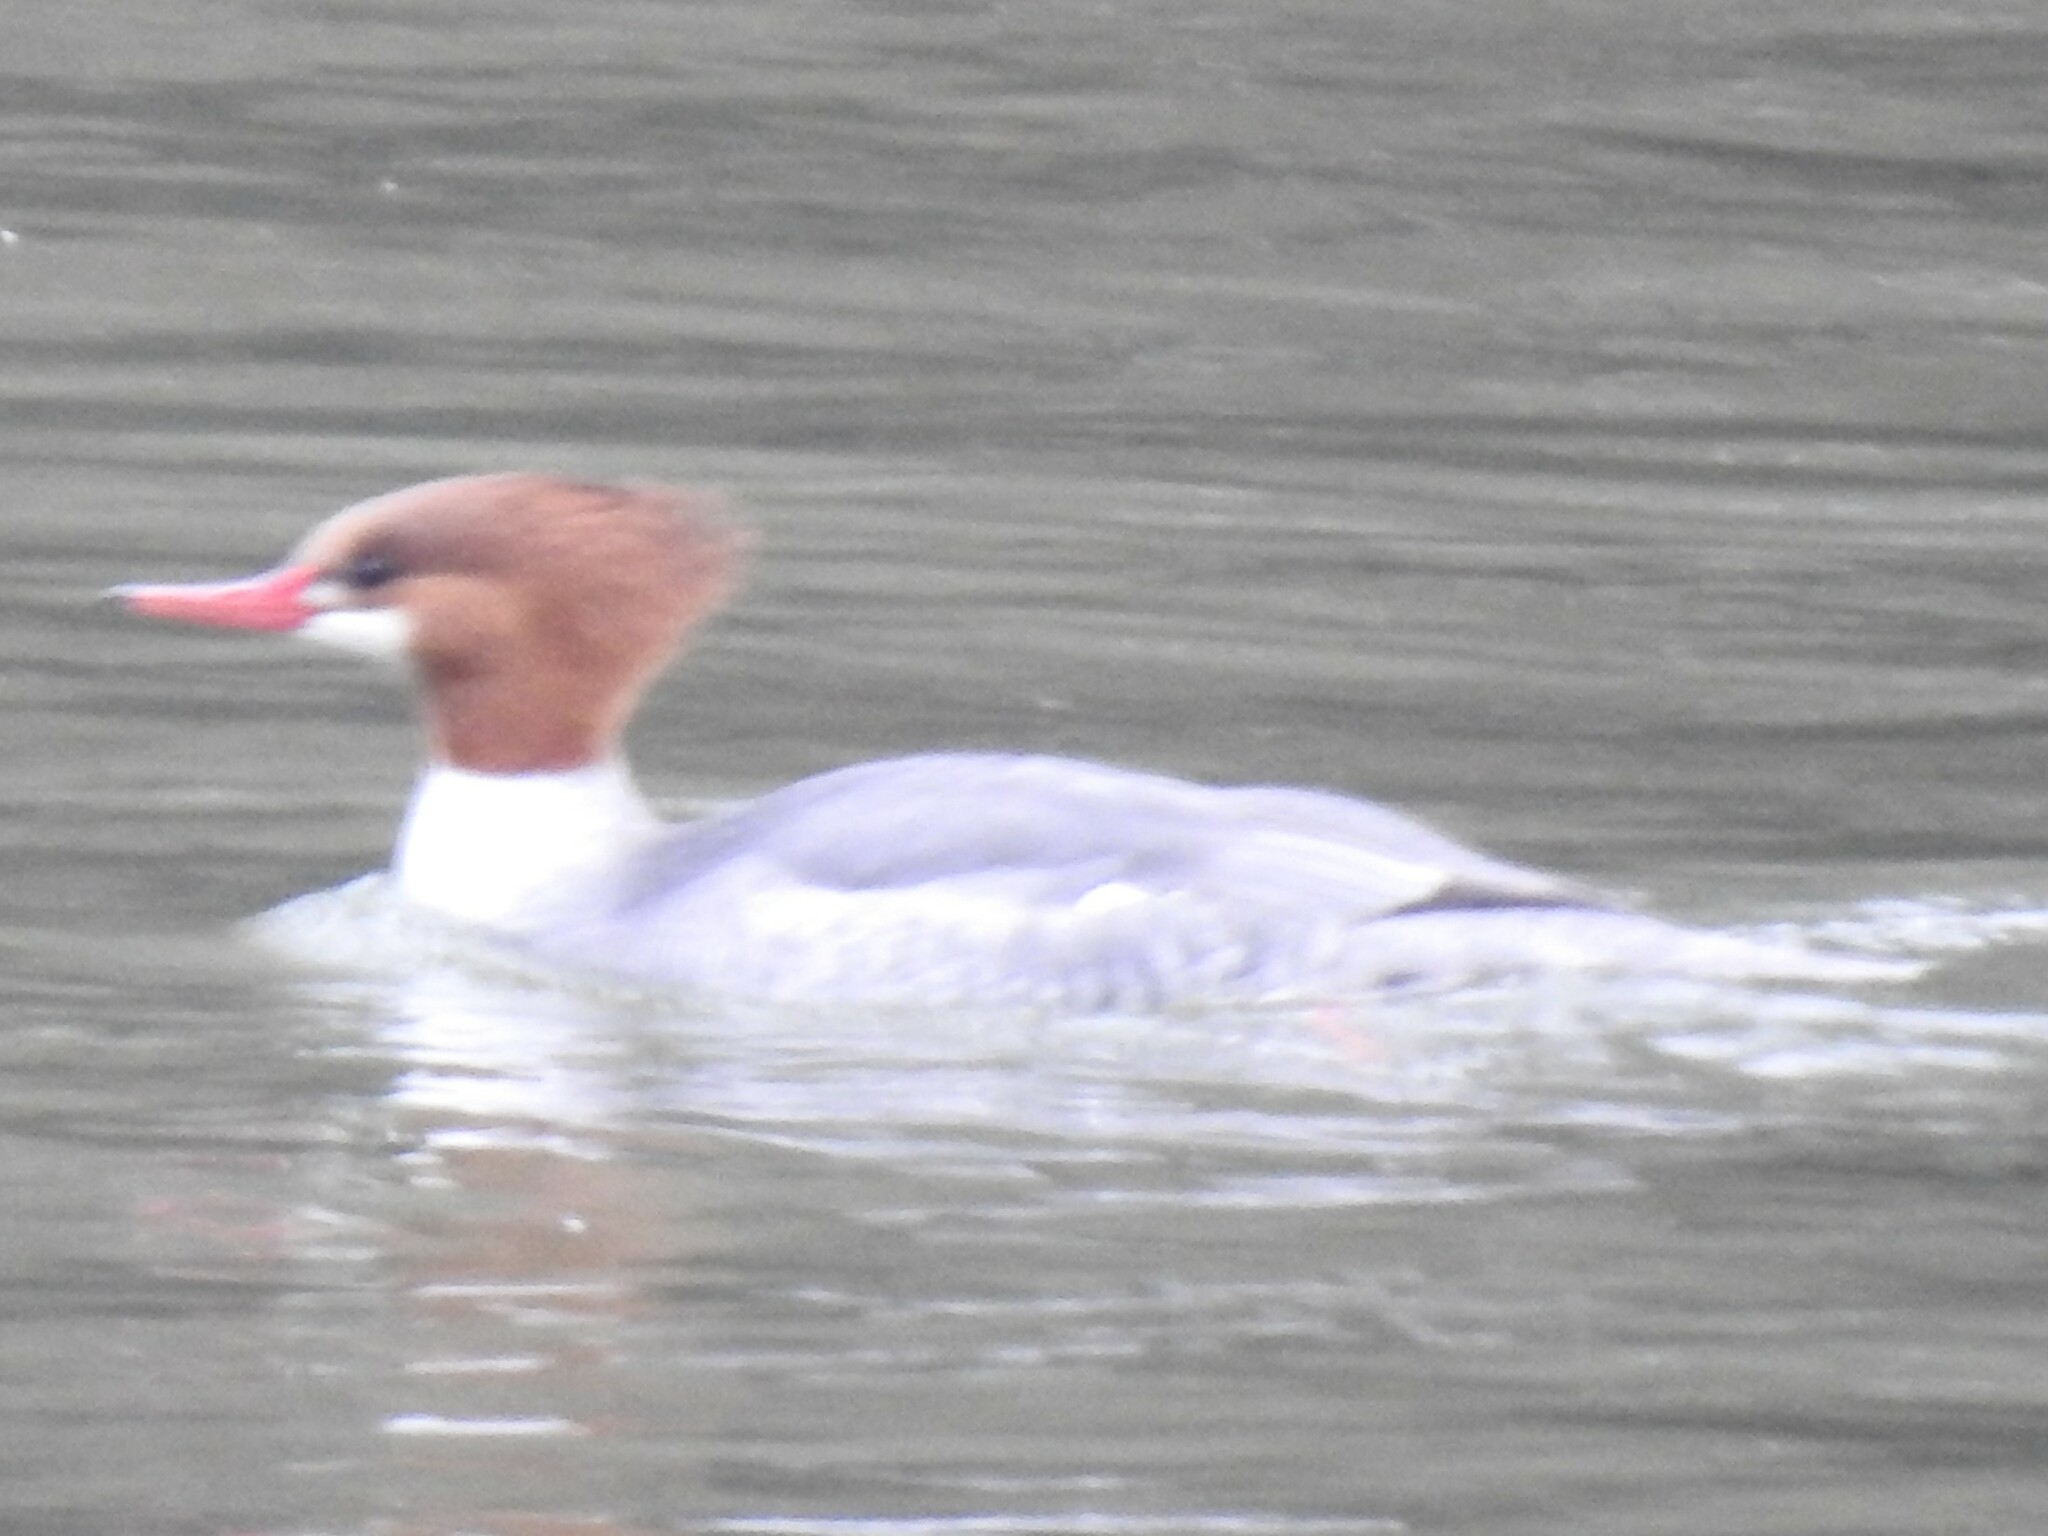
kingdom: Animalia
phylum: Chordata
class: Aves
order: Anseriformes
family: Anatidae
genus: Mergus
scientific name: Mergus merganser
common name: Common merganser
